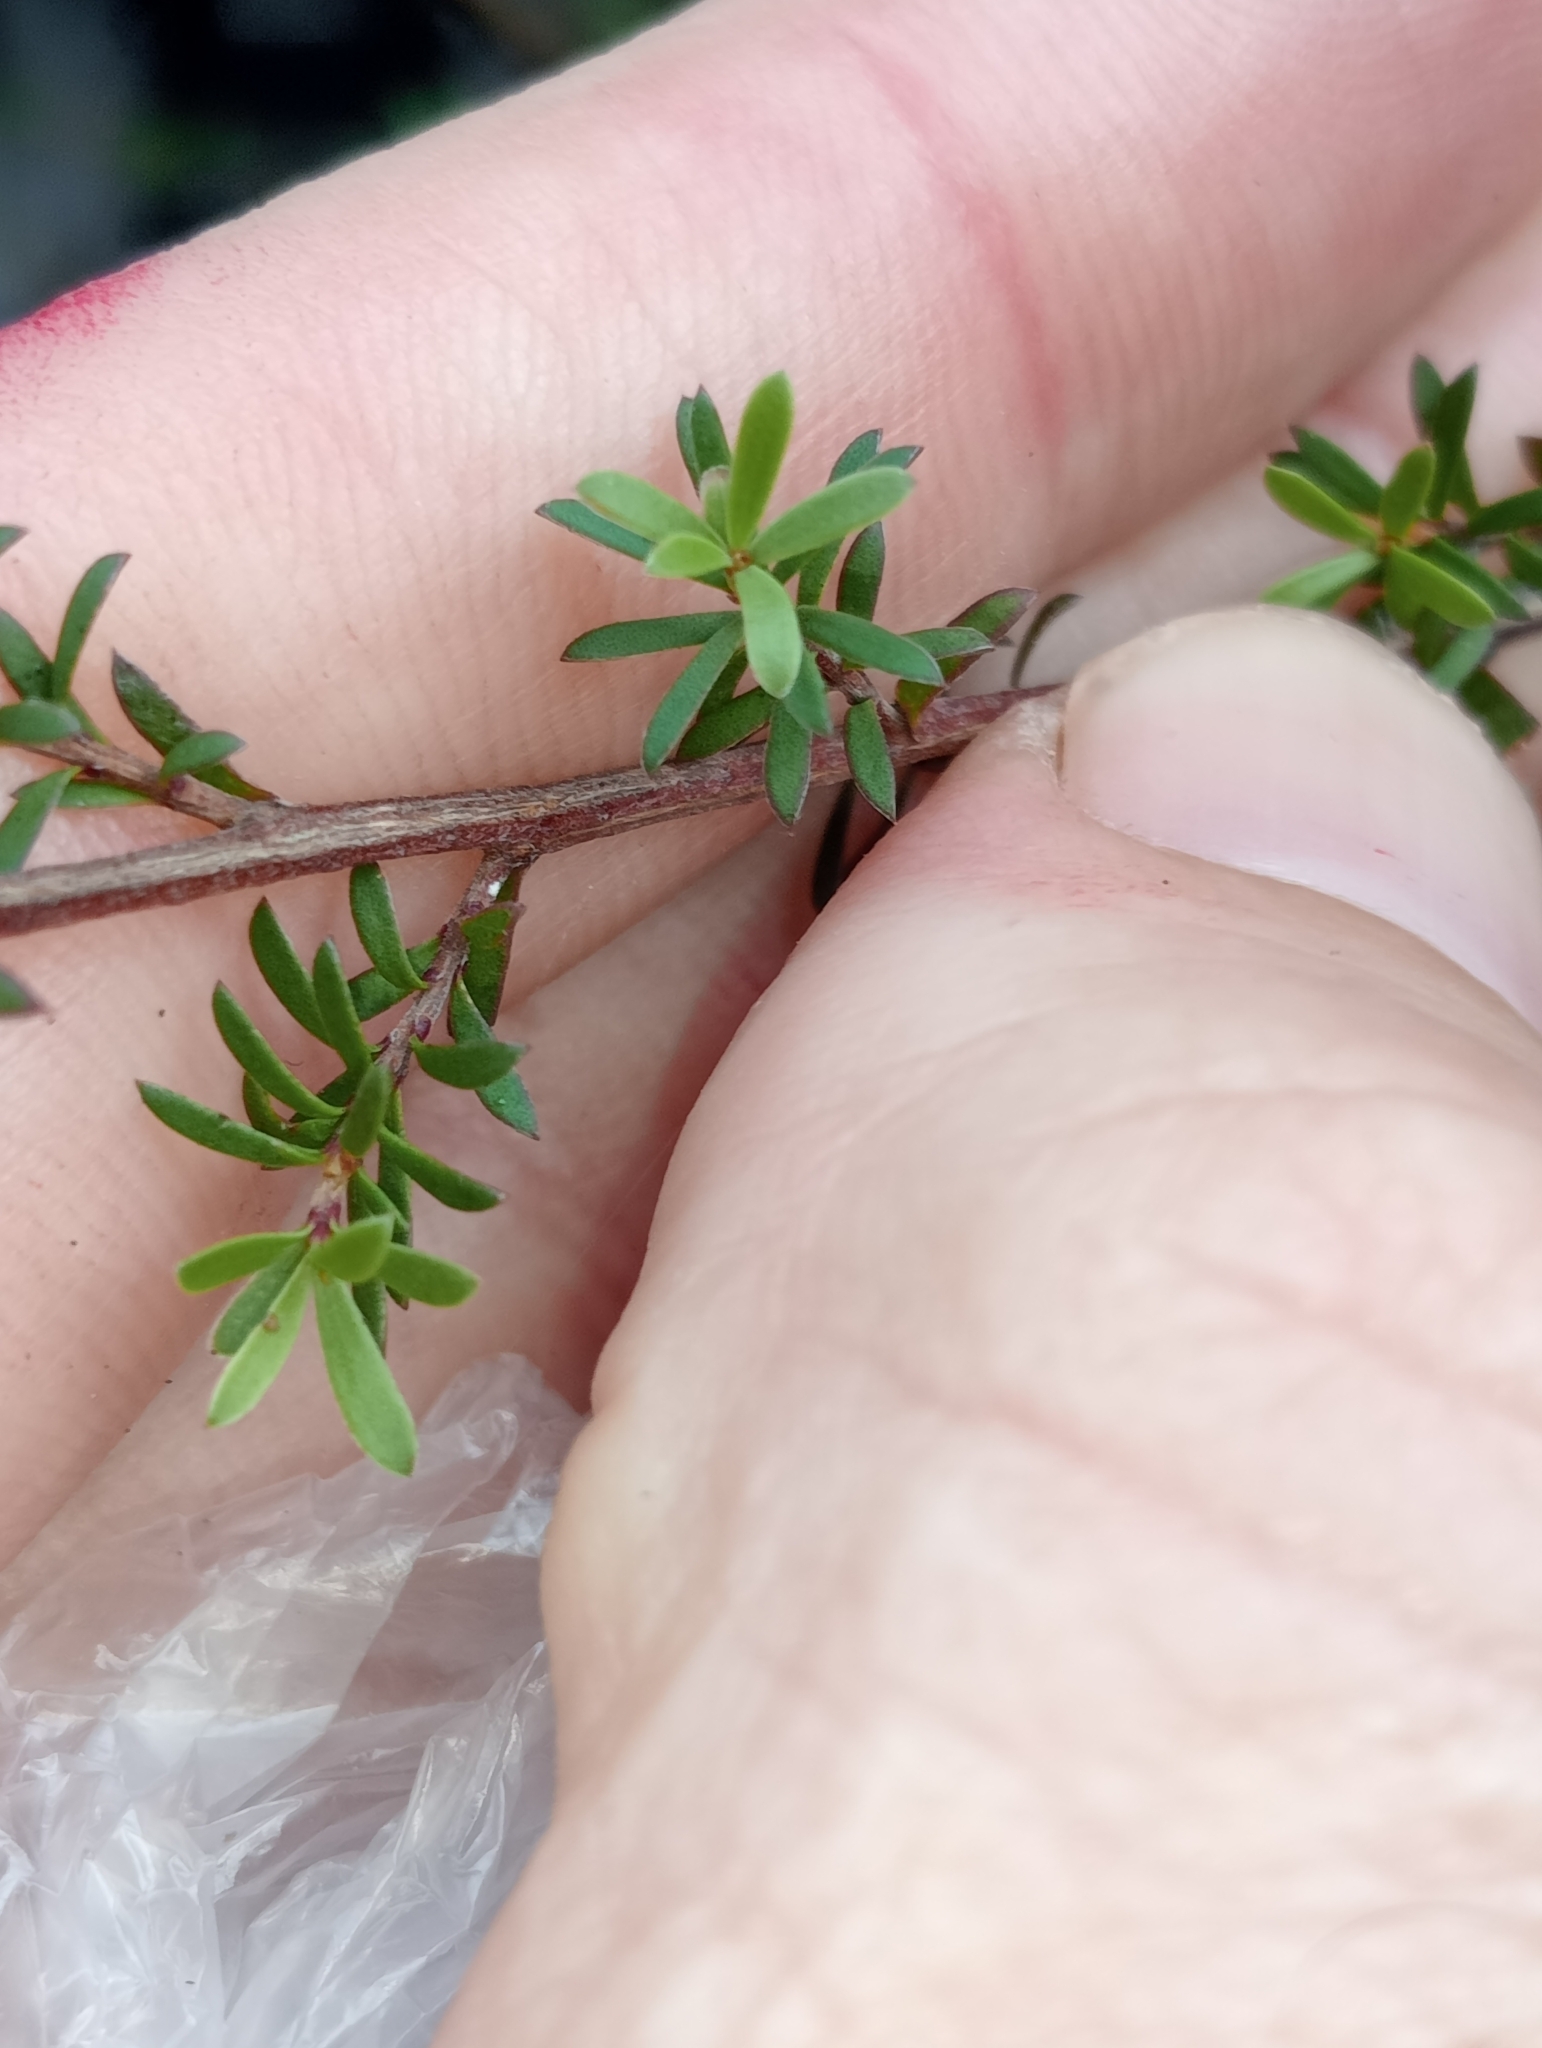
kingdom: Plantae
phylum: Tracheophyta
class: Magnoliopsida
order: Myrtales
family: Myrtaceae
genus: Kunzea
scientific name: Kunzea ericoides
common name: Burgan
